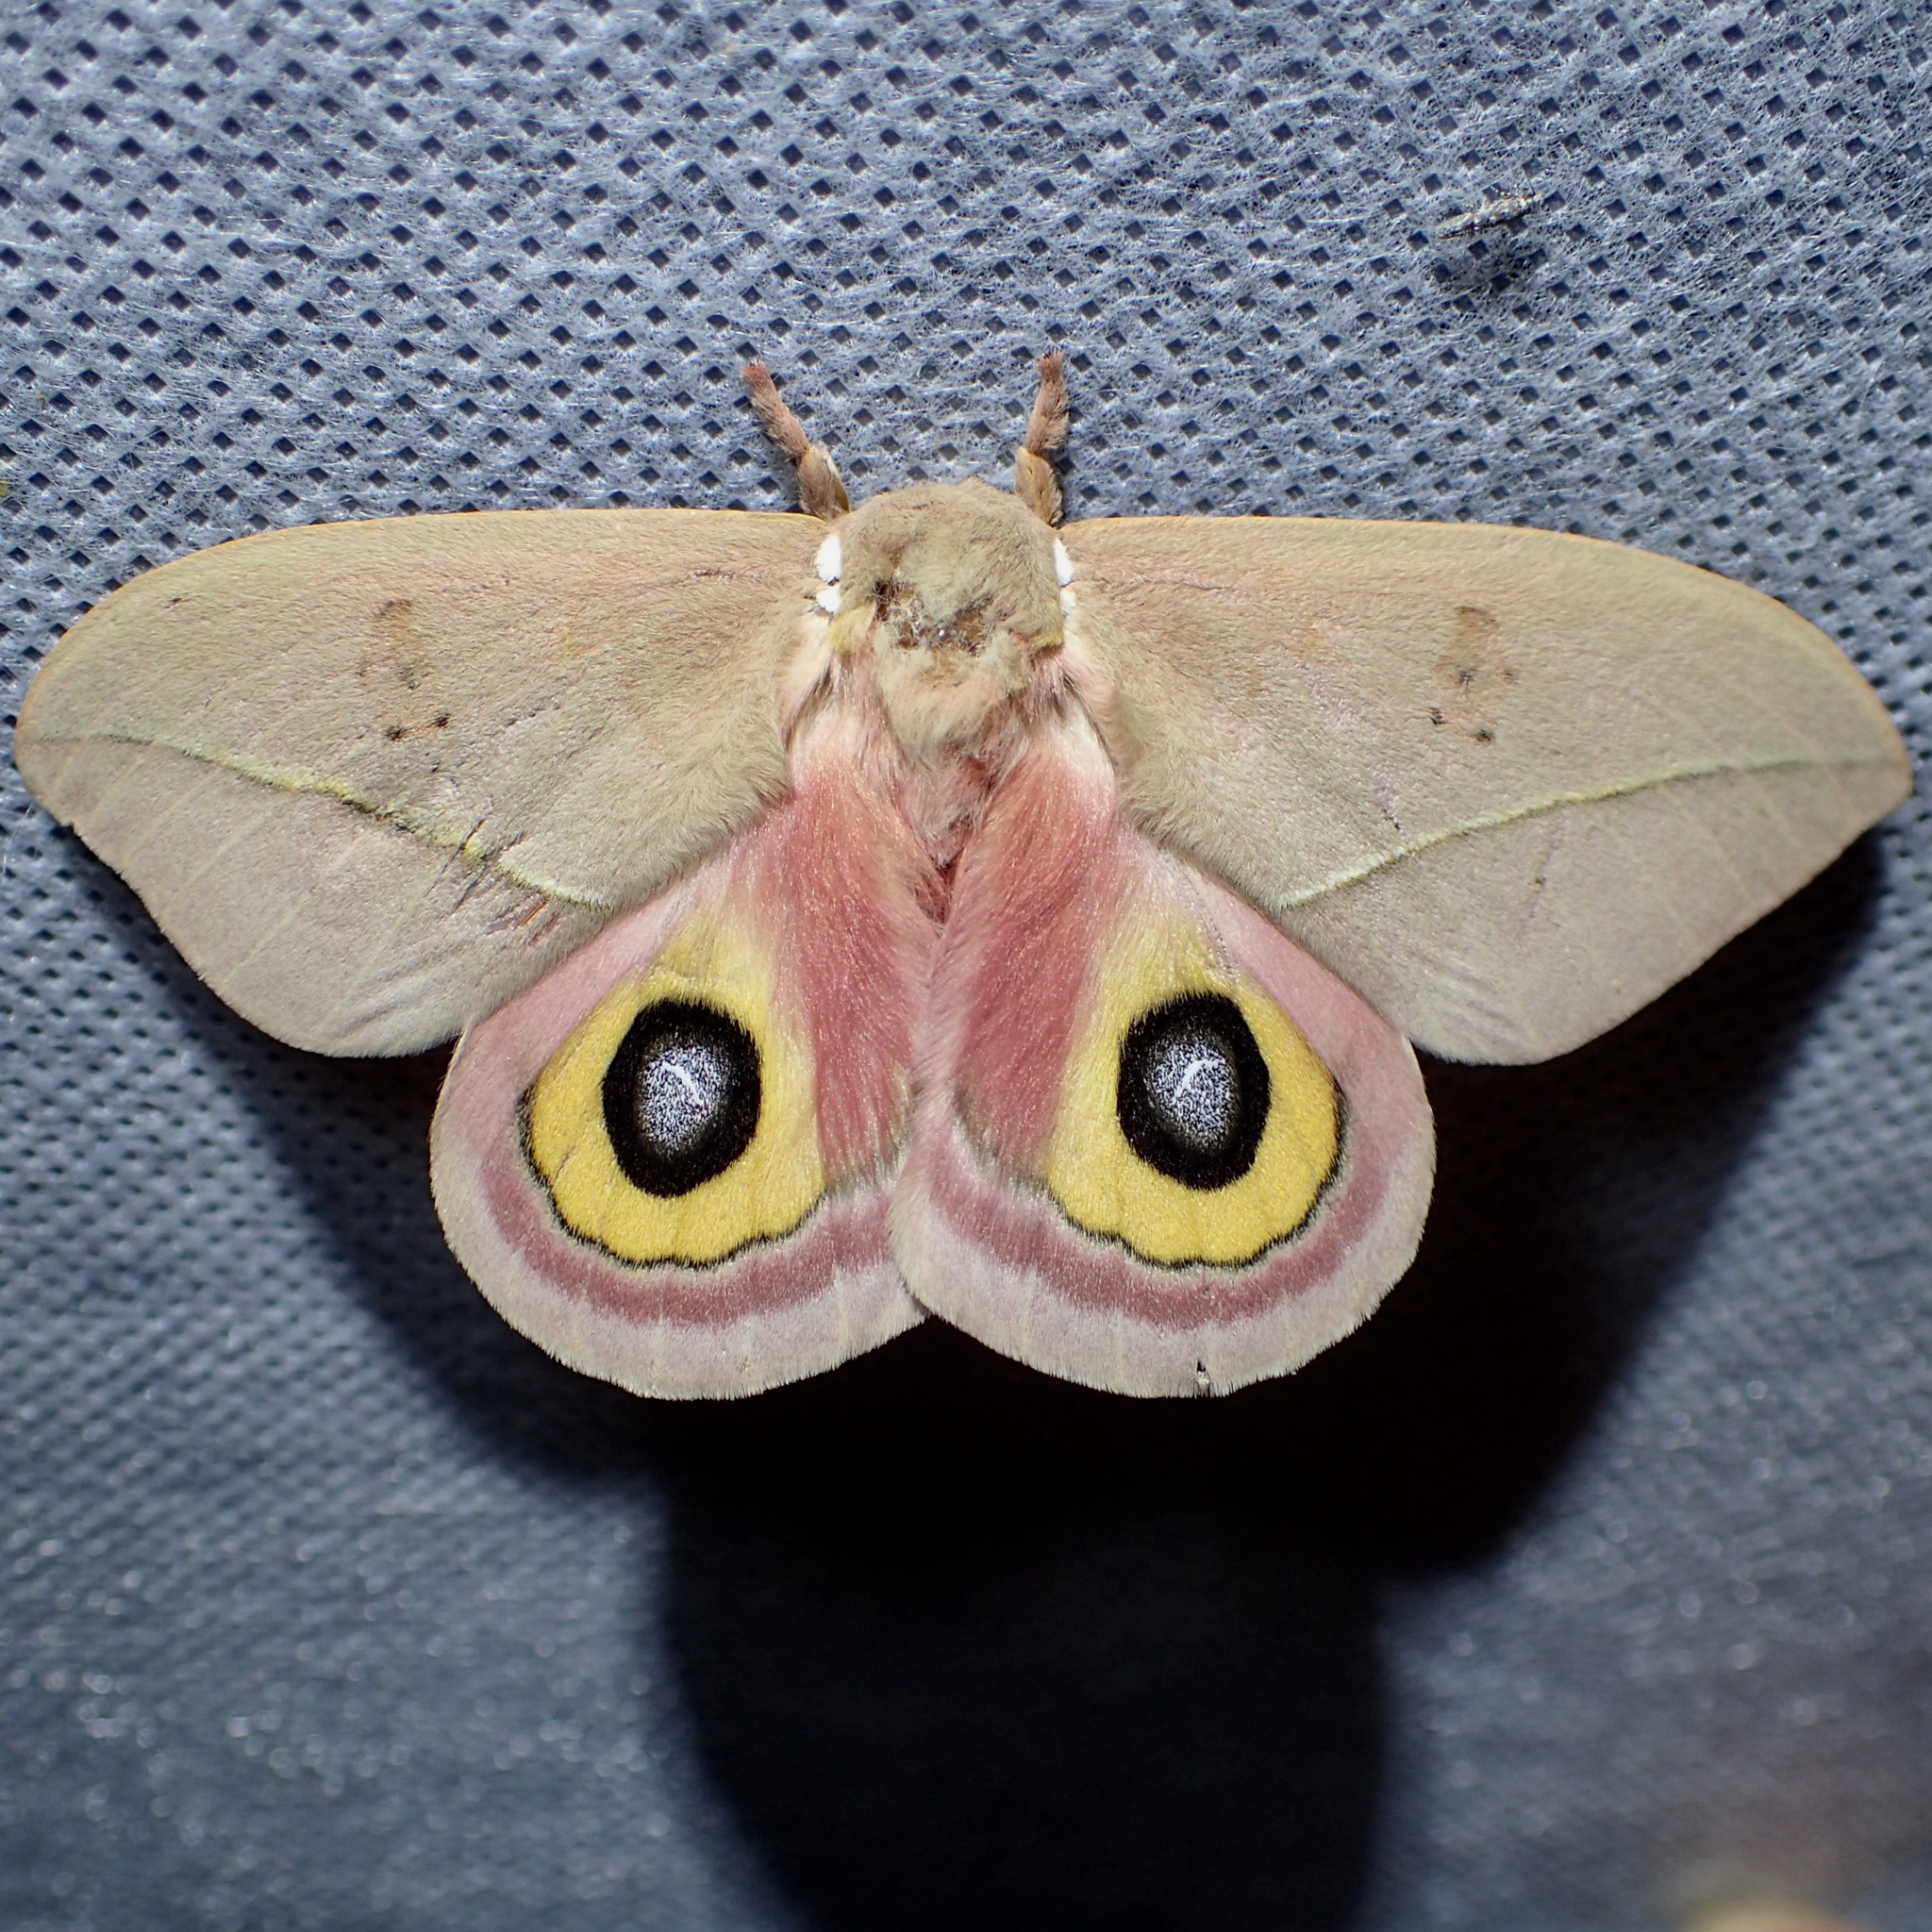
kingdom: Animalia
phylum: Arthropoda
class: Insecta
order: Lepidoptera
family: Saturniidae
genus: Automeris
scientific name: Automeris cecrops
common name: Cecrops eyed silkmoth
